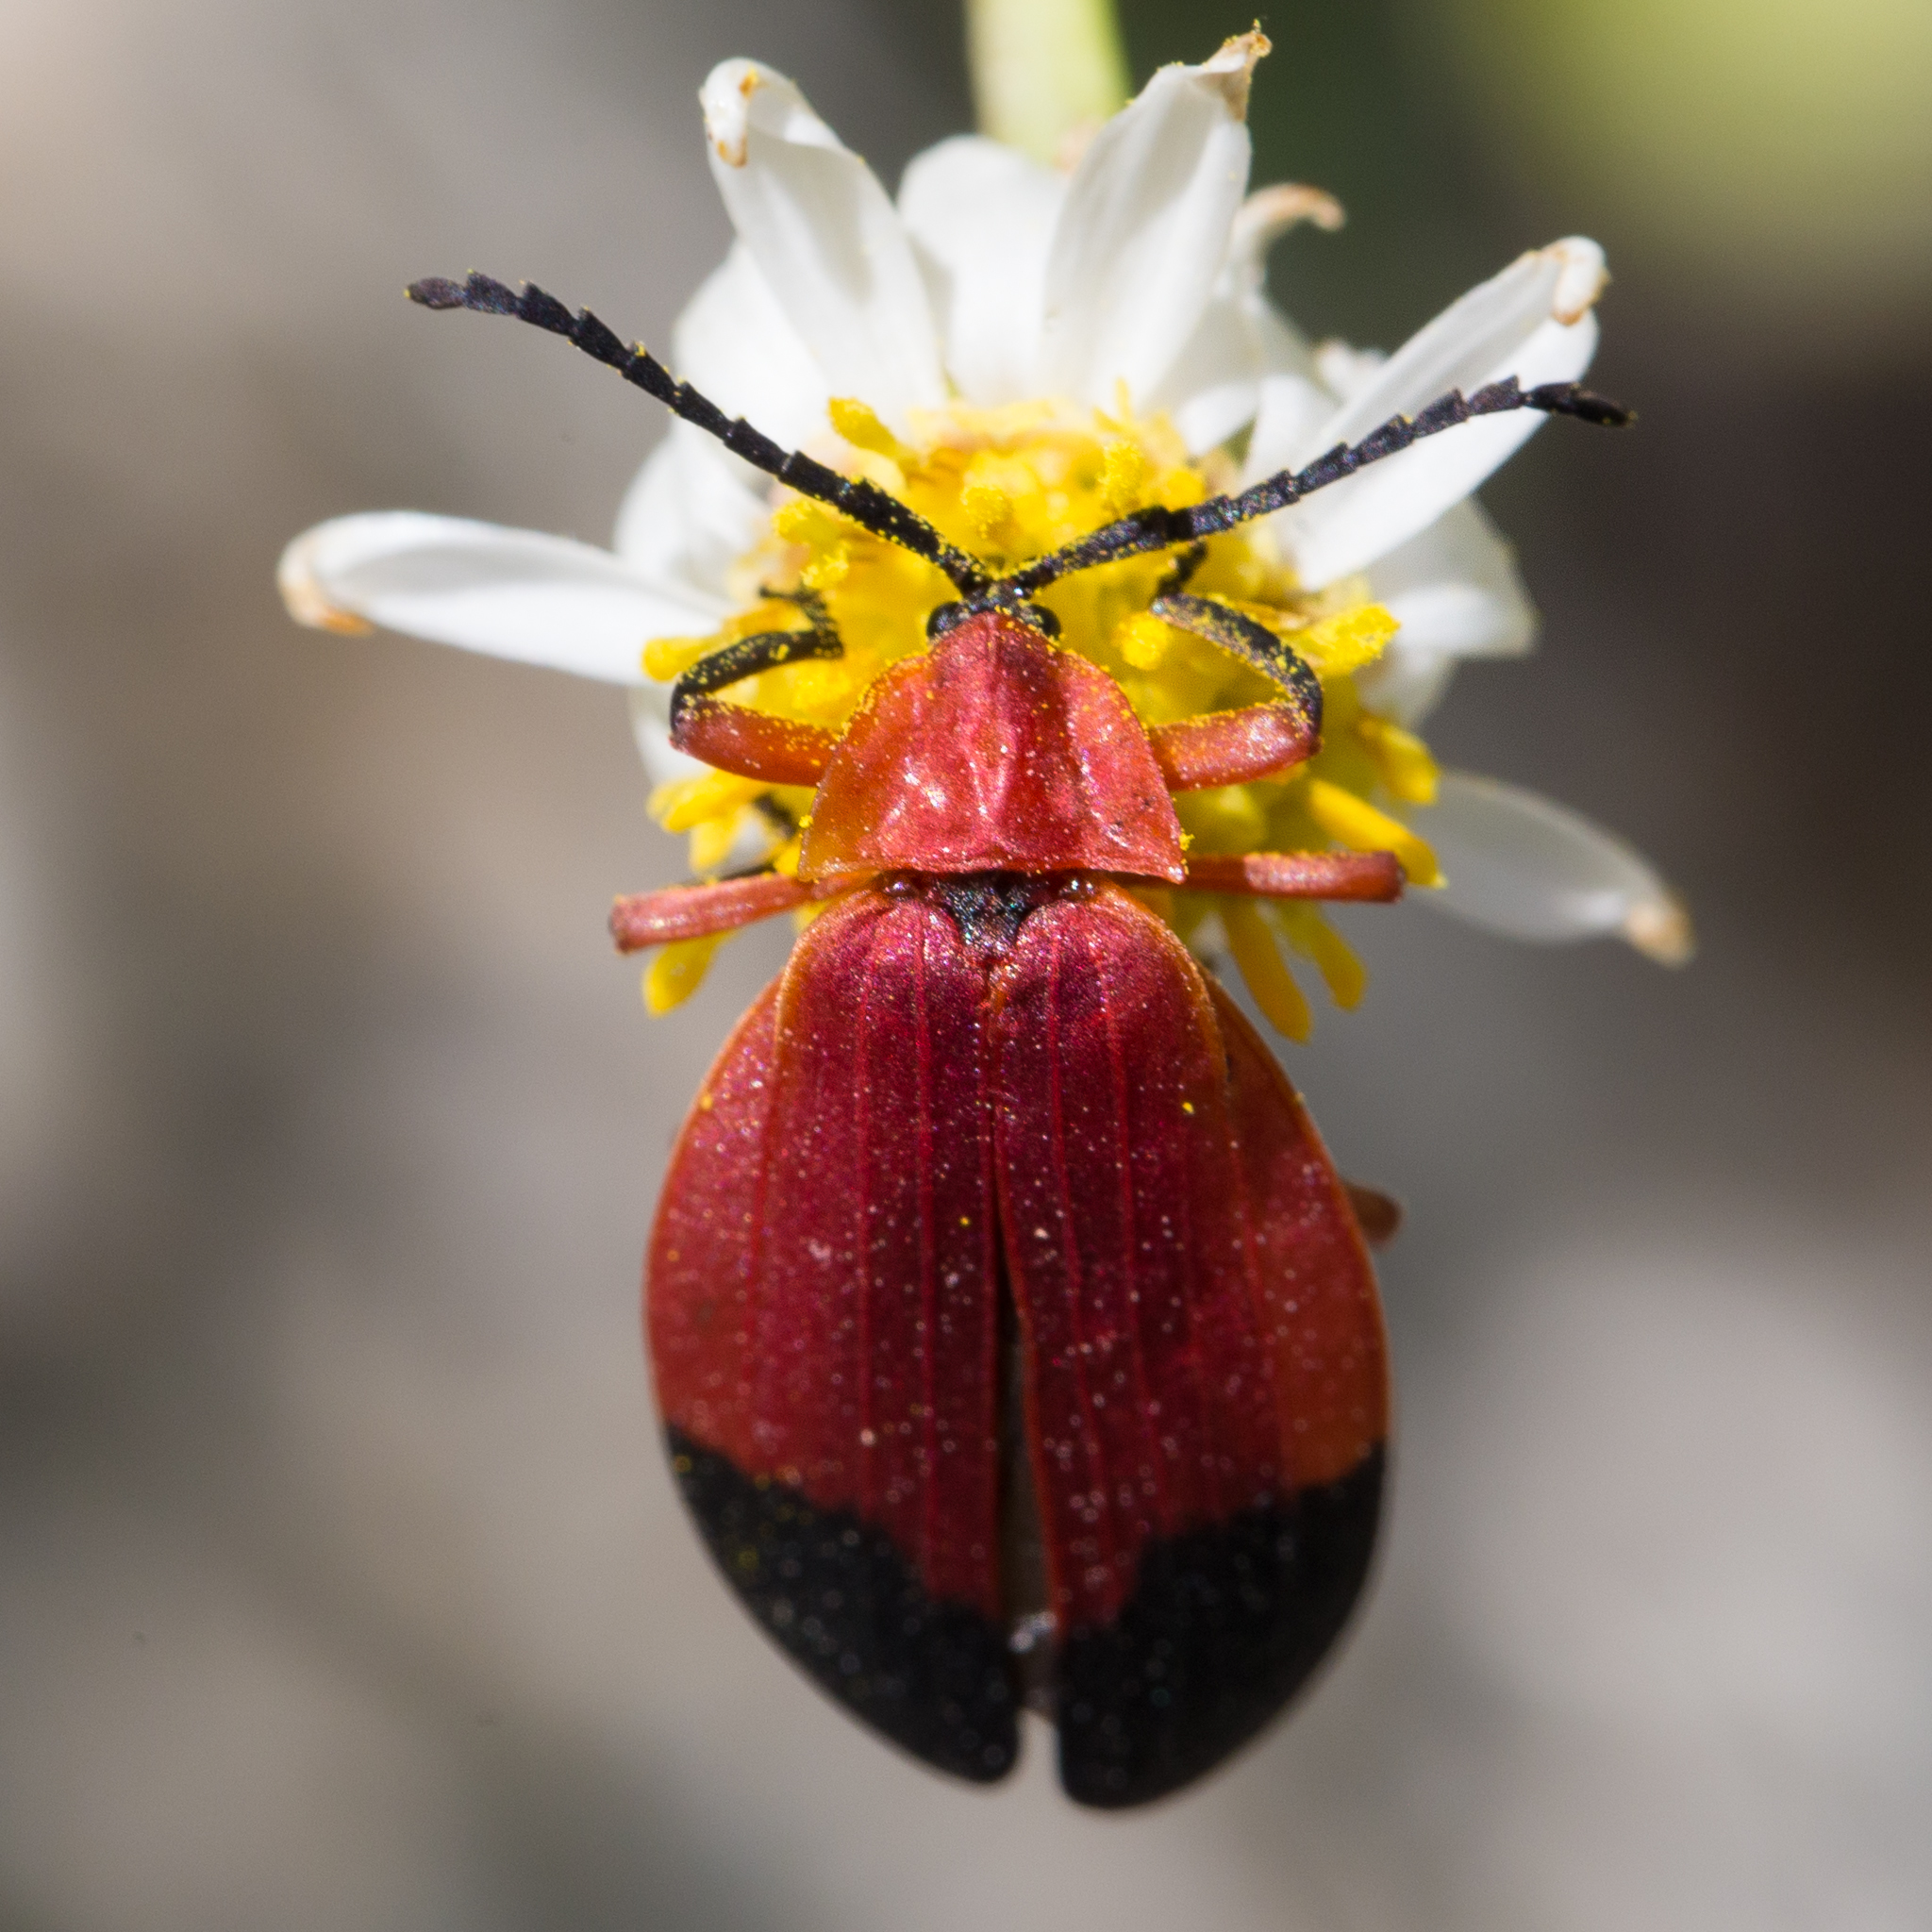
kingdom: Animalia
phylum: Arthropoda
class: Insecta
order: Coleoptera
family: Lycidae
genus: Lycus
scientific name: Lycus lecontei
